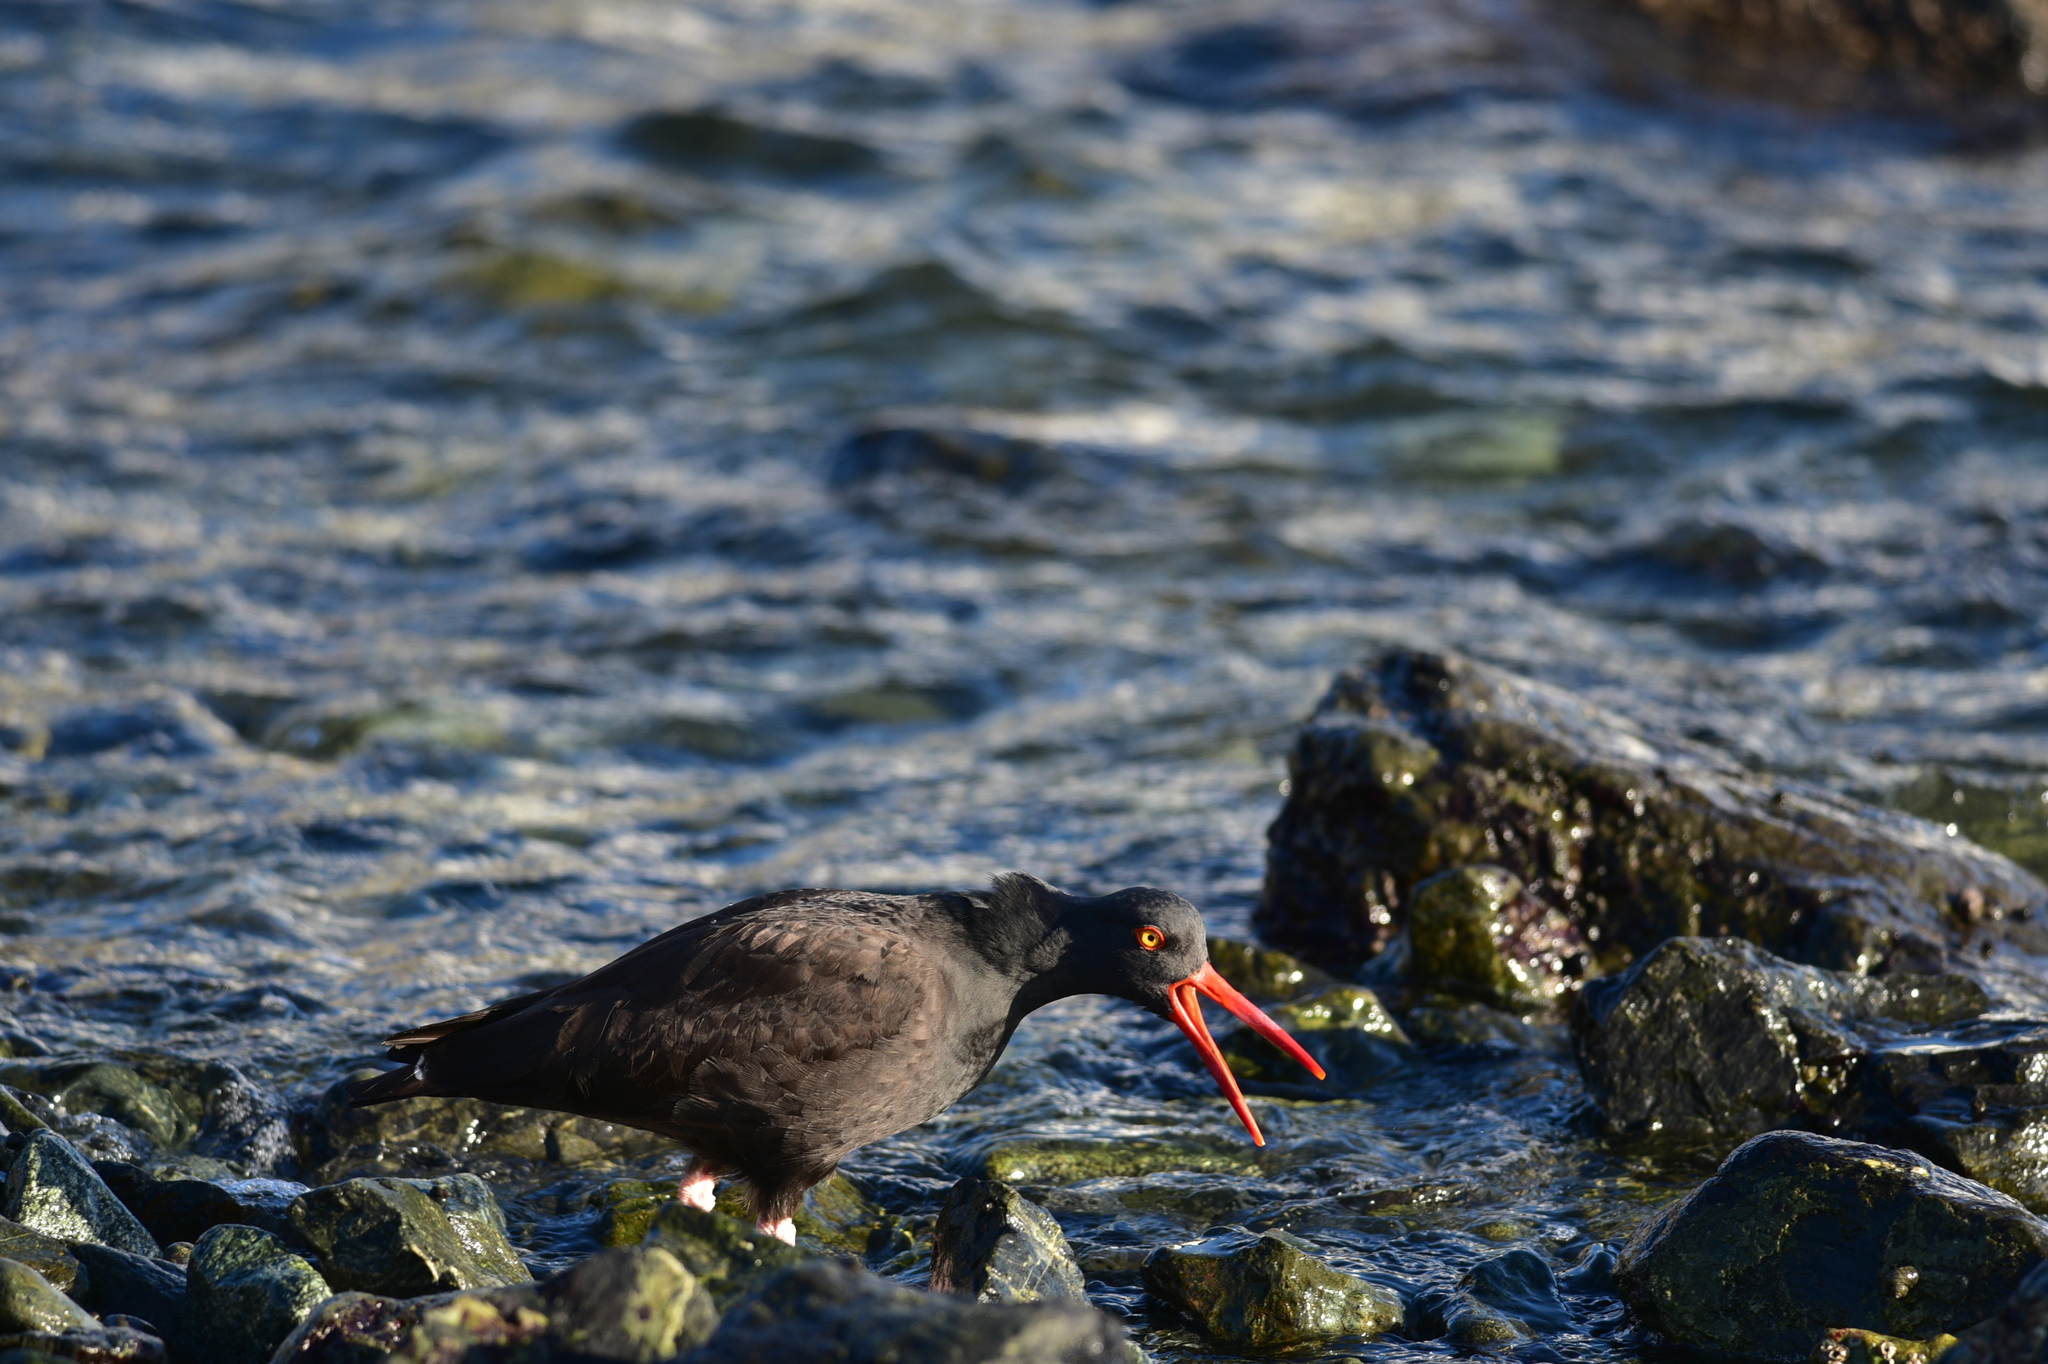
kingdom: Animalia
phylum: Chordata
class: Aves
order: Charadriiformes
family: Haematopodidae
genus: Haematopus
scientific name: Haematopus bachmani
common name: Black oystercatcher
